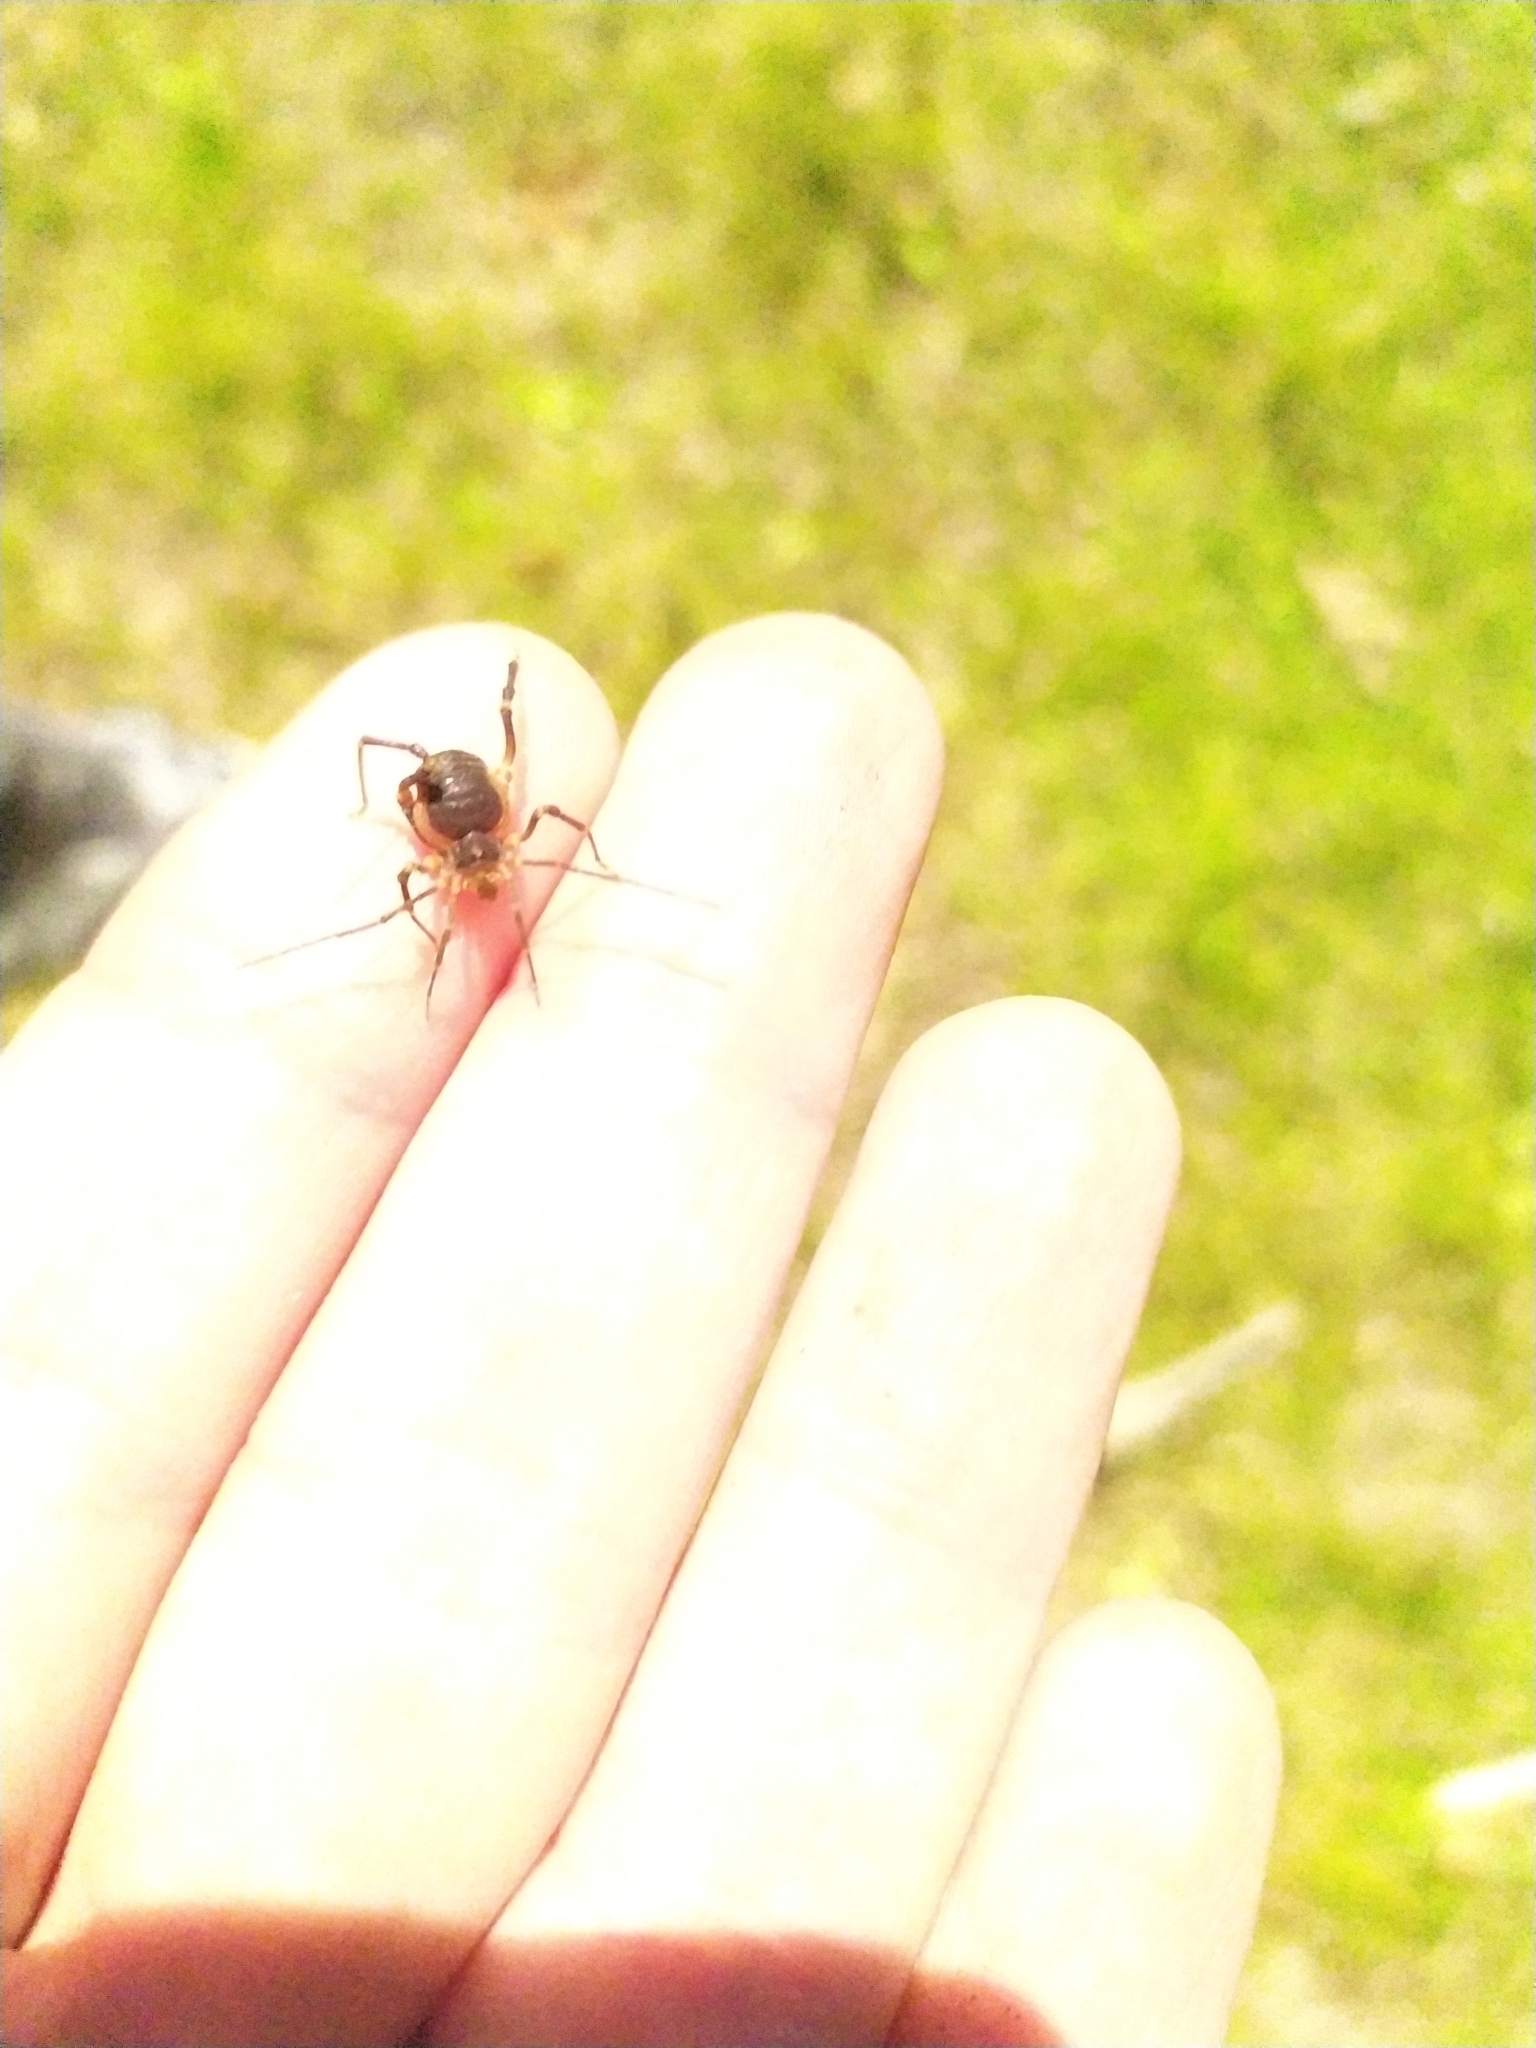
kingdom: Animalia
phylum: Arthropoda
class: Arachnida
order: Opiliones
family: Gonyleptidae
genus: Acanthopachylus
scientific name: Acanthopachylus robustus
